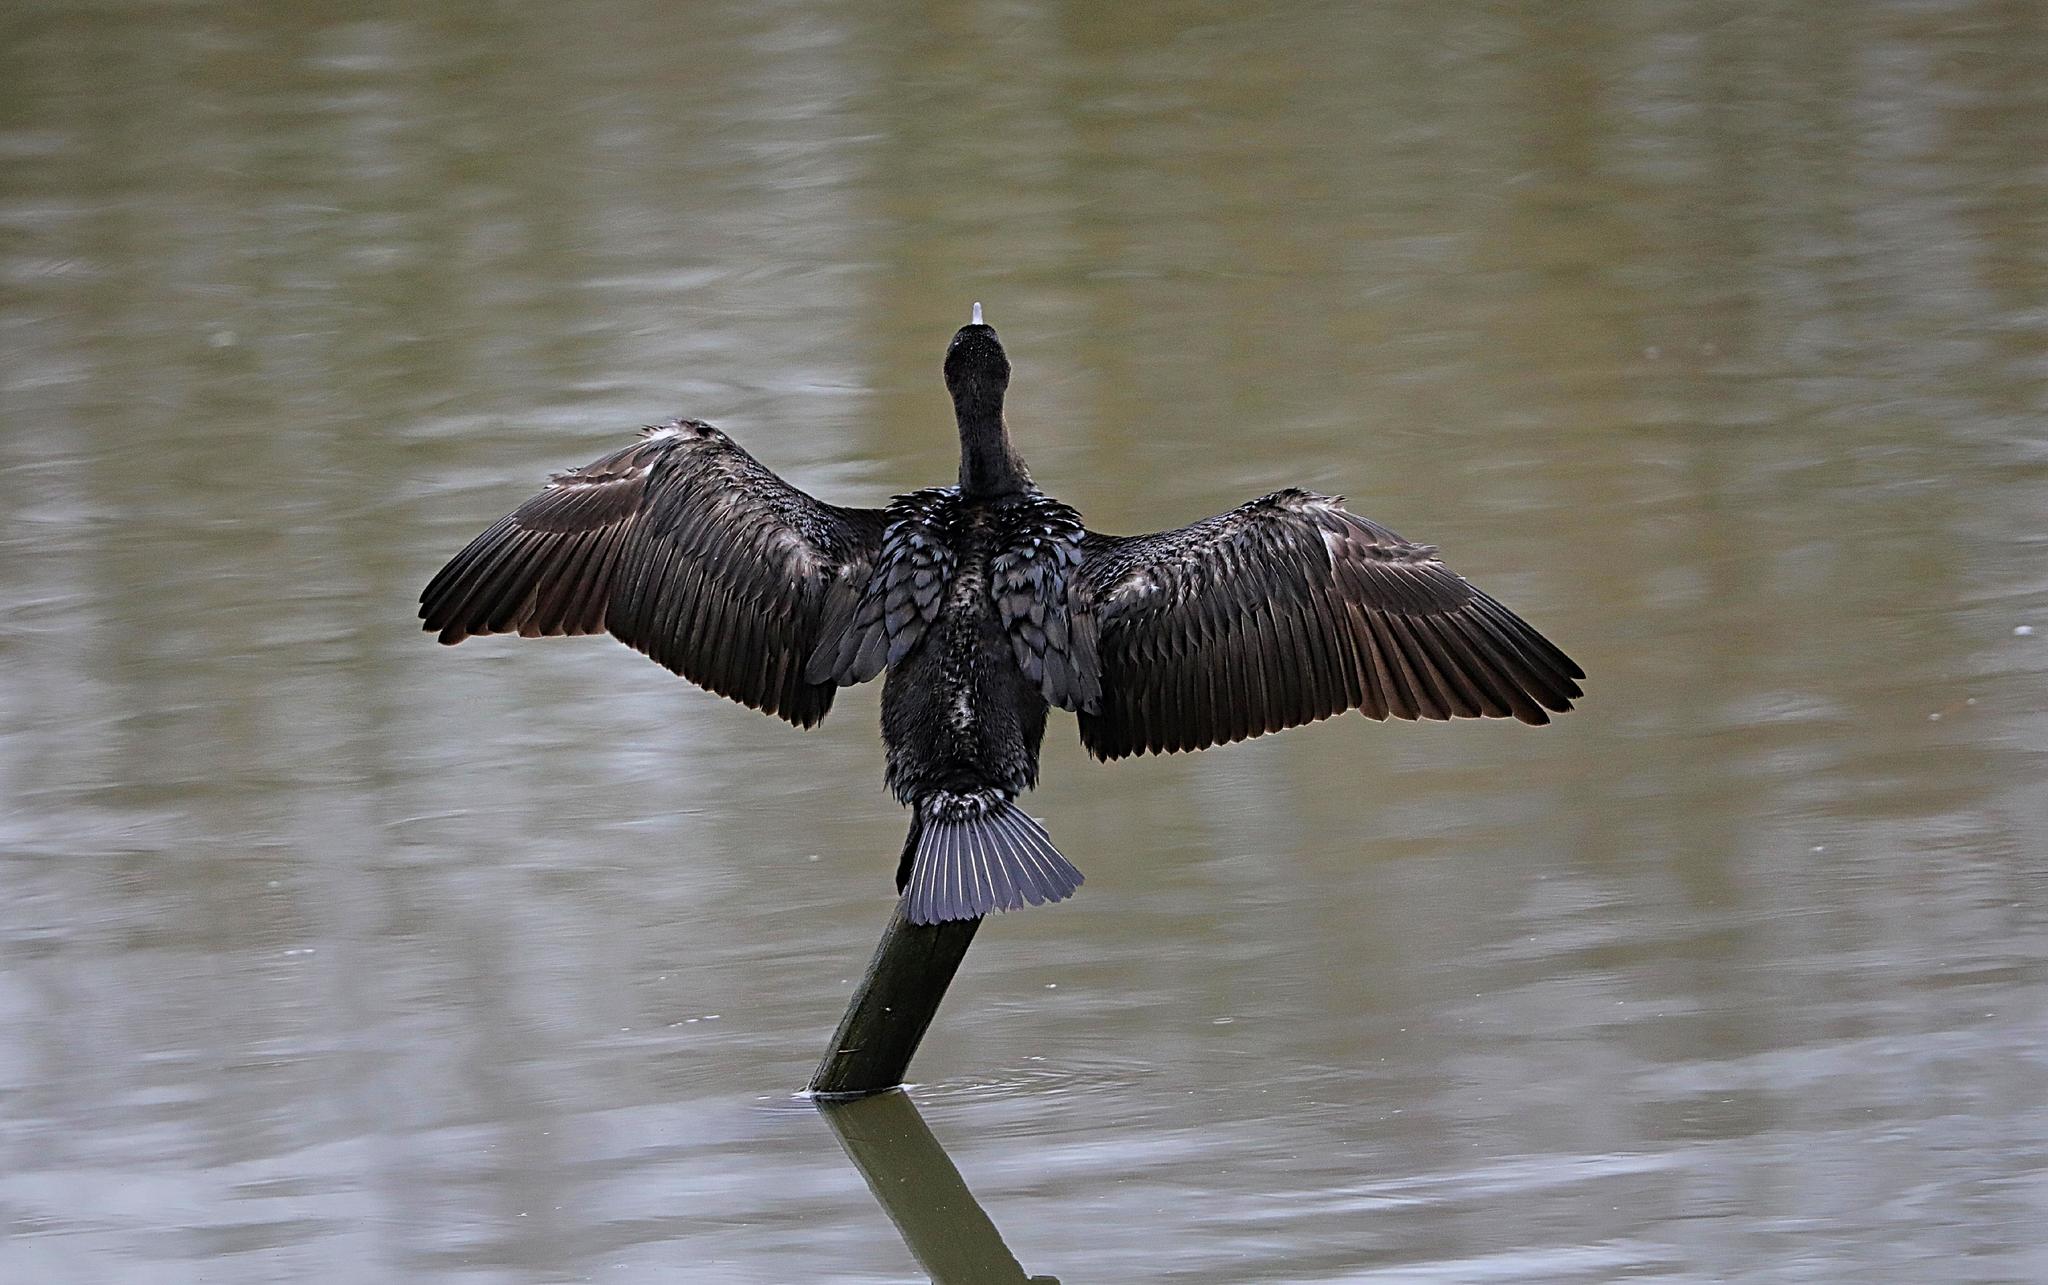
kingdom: Animalia
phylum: Chordata
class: Aves
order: Suliformes
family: Phalacrocoracidae
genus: Phalacrocorax
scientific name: Phalacrocorax carbo
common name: Great cormorant
